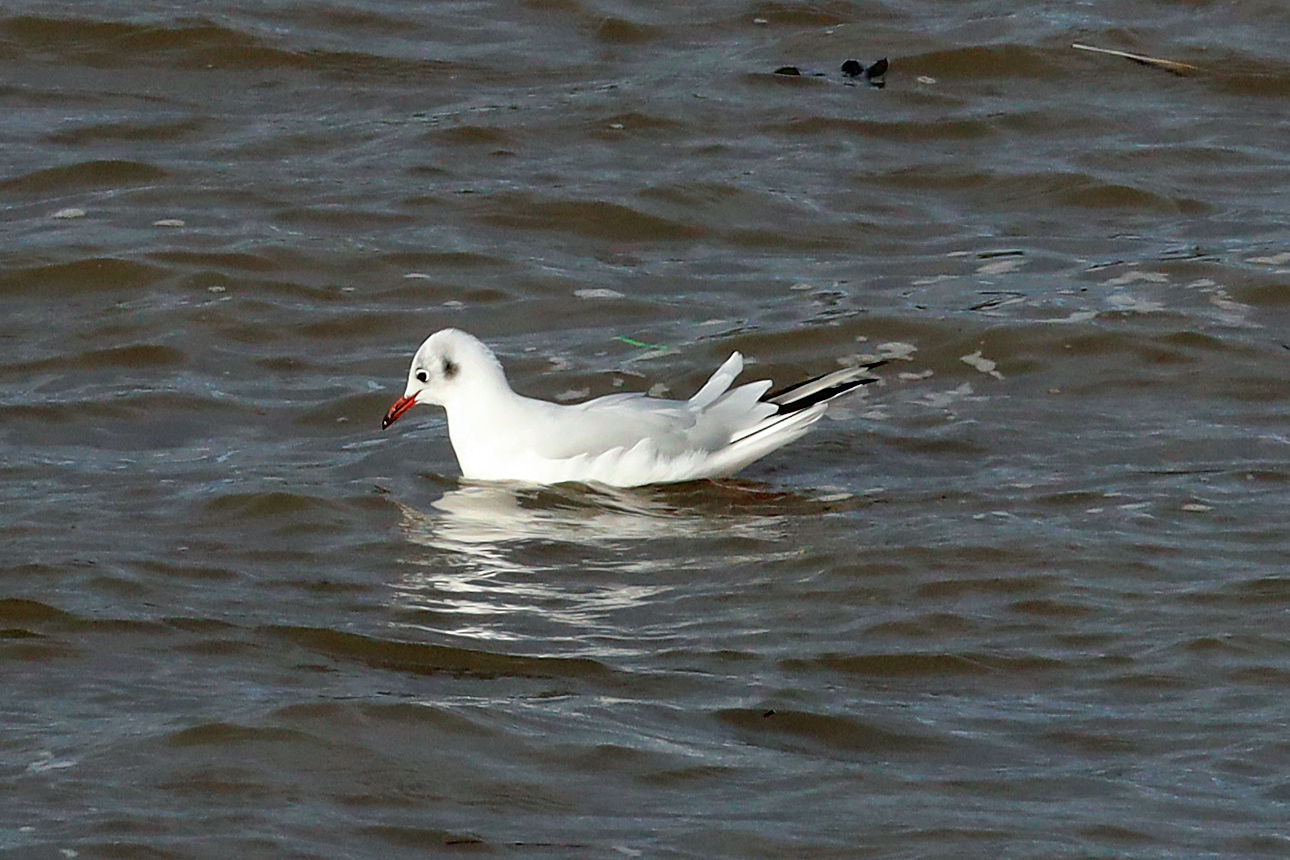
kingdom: Animalia
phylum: Chordata
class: Aves
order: Charadriiformes
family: Laridae
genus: Chroicocephalus
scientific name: Chroicocephalus ridibundus
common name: Black-headed gull
